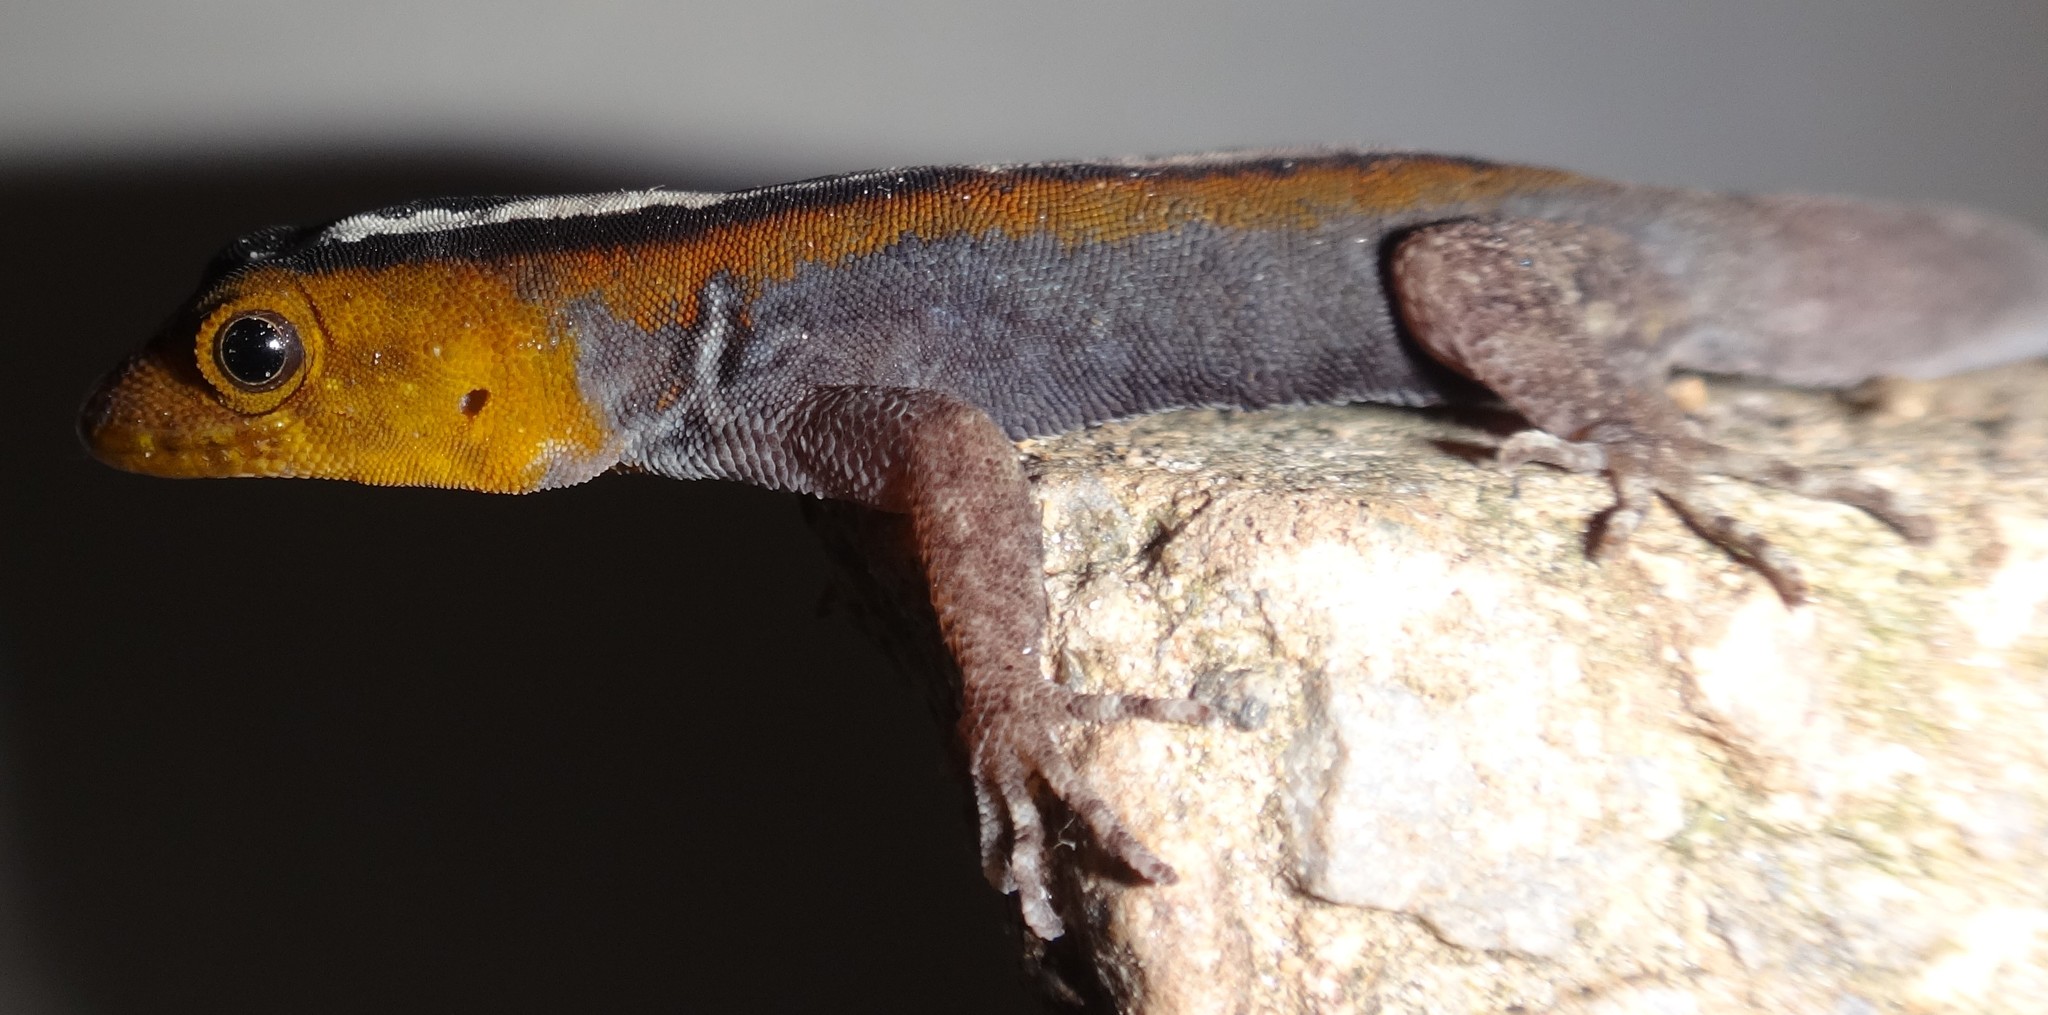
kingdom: Animalia
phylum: Chordata
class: Squamata
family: Sphaerodactylidae
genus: Gonatodes
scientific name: Gonatodes vittatus
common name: Wiegmann's striped gecko
